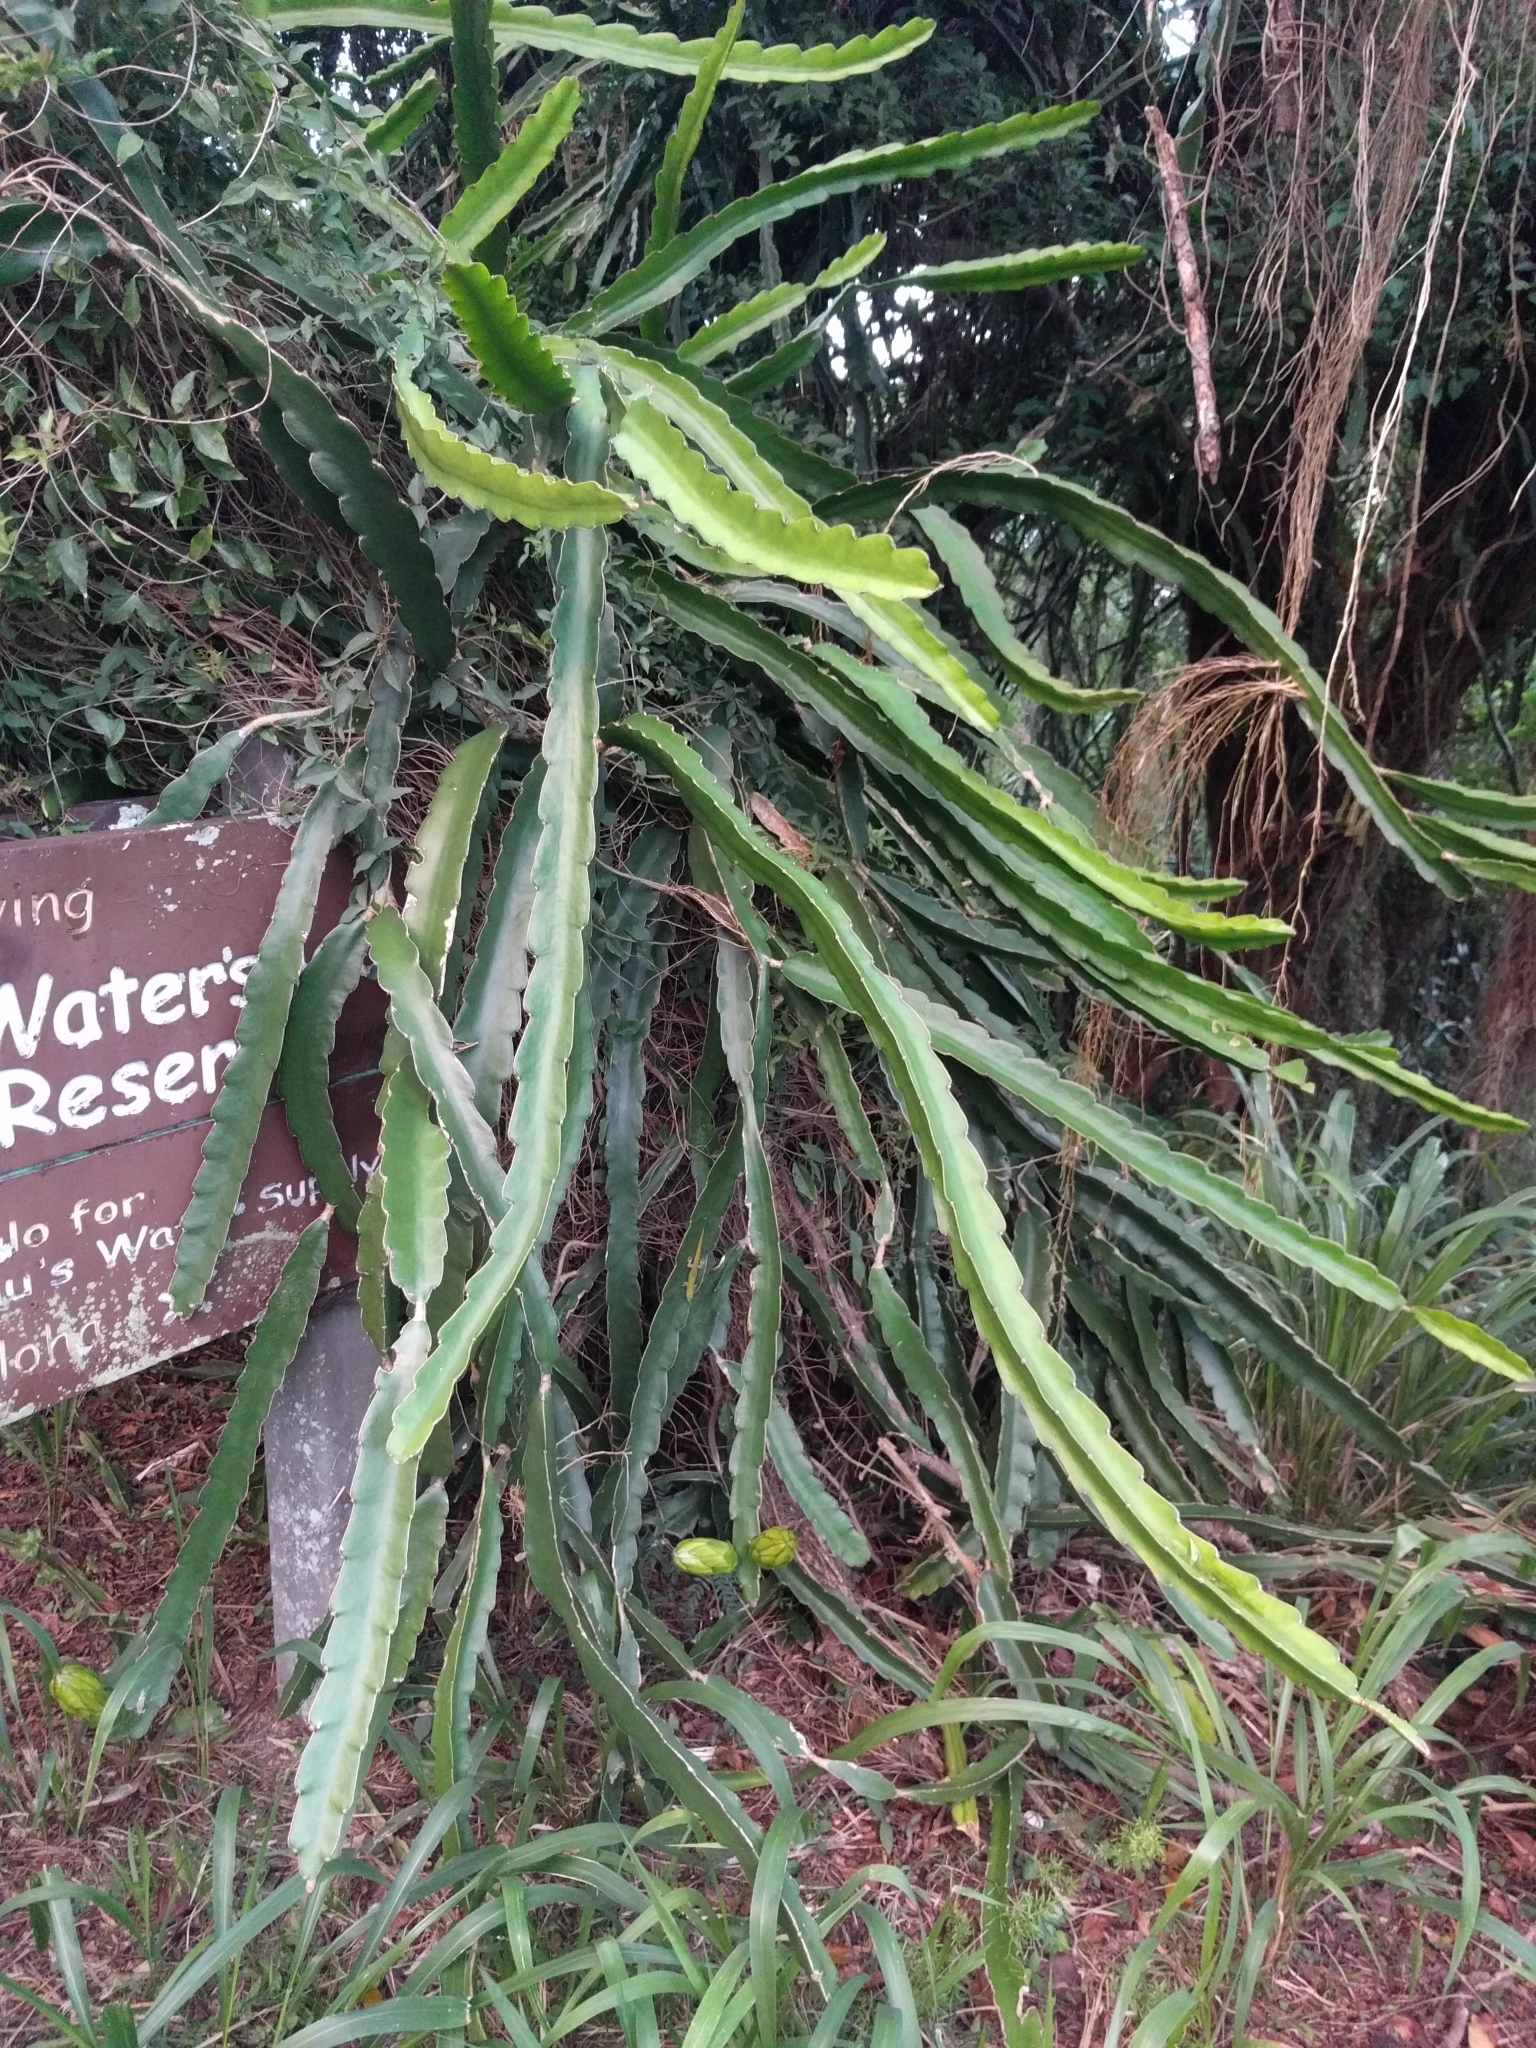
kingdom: Plantae
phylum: Tracheophyta
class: Magnoliopsida
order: Caryophyllales
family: Cactaceae
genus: Selenicereus
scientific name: Selenicereus undatus
